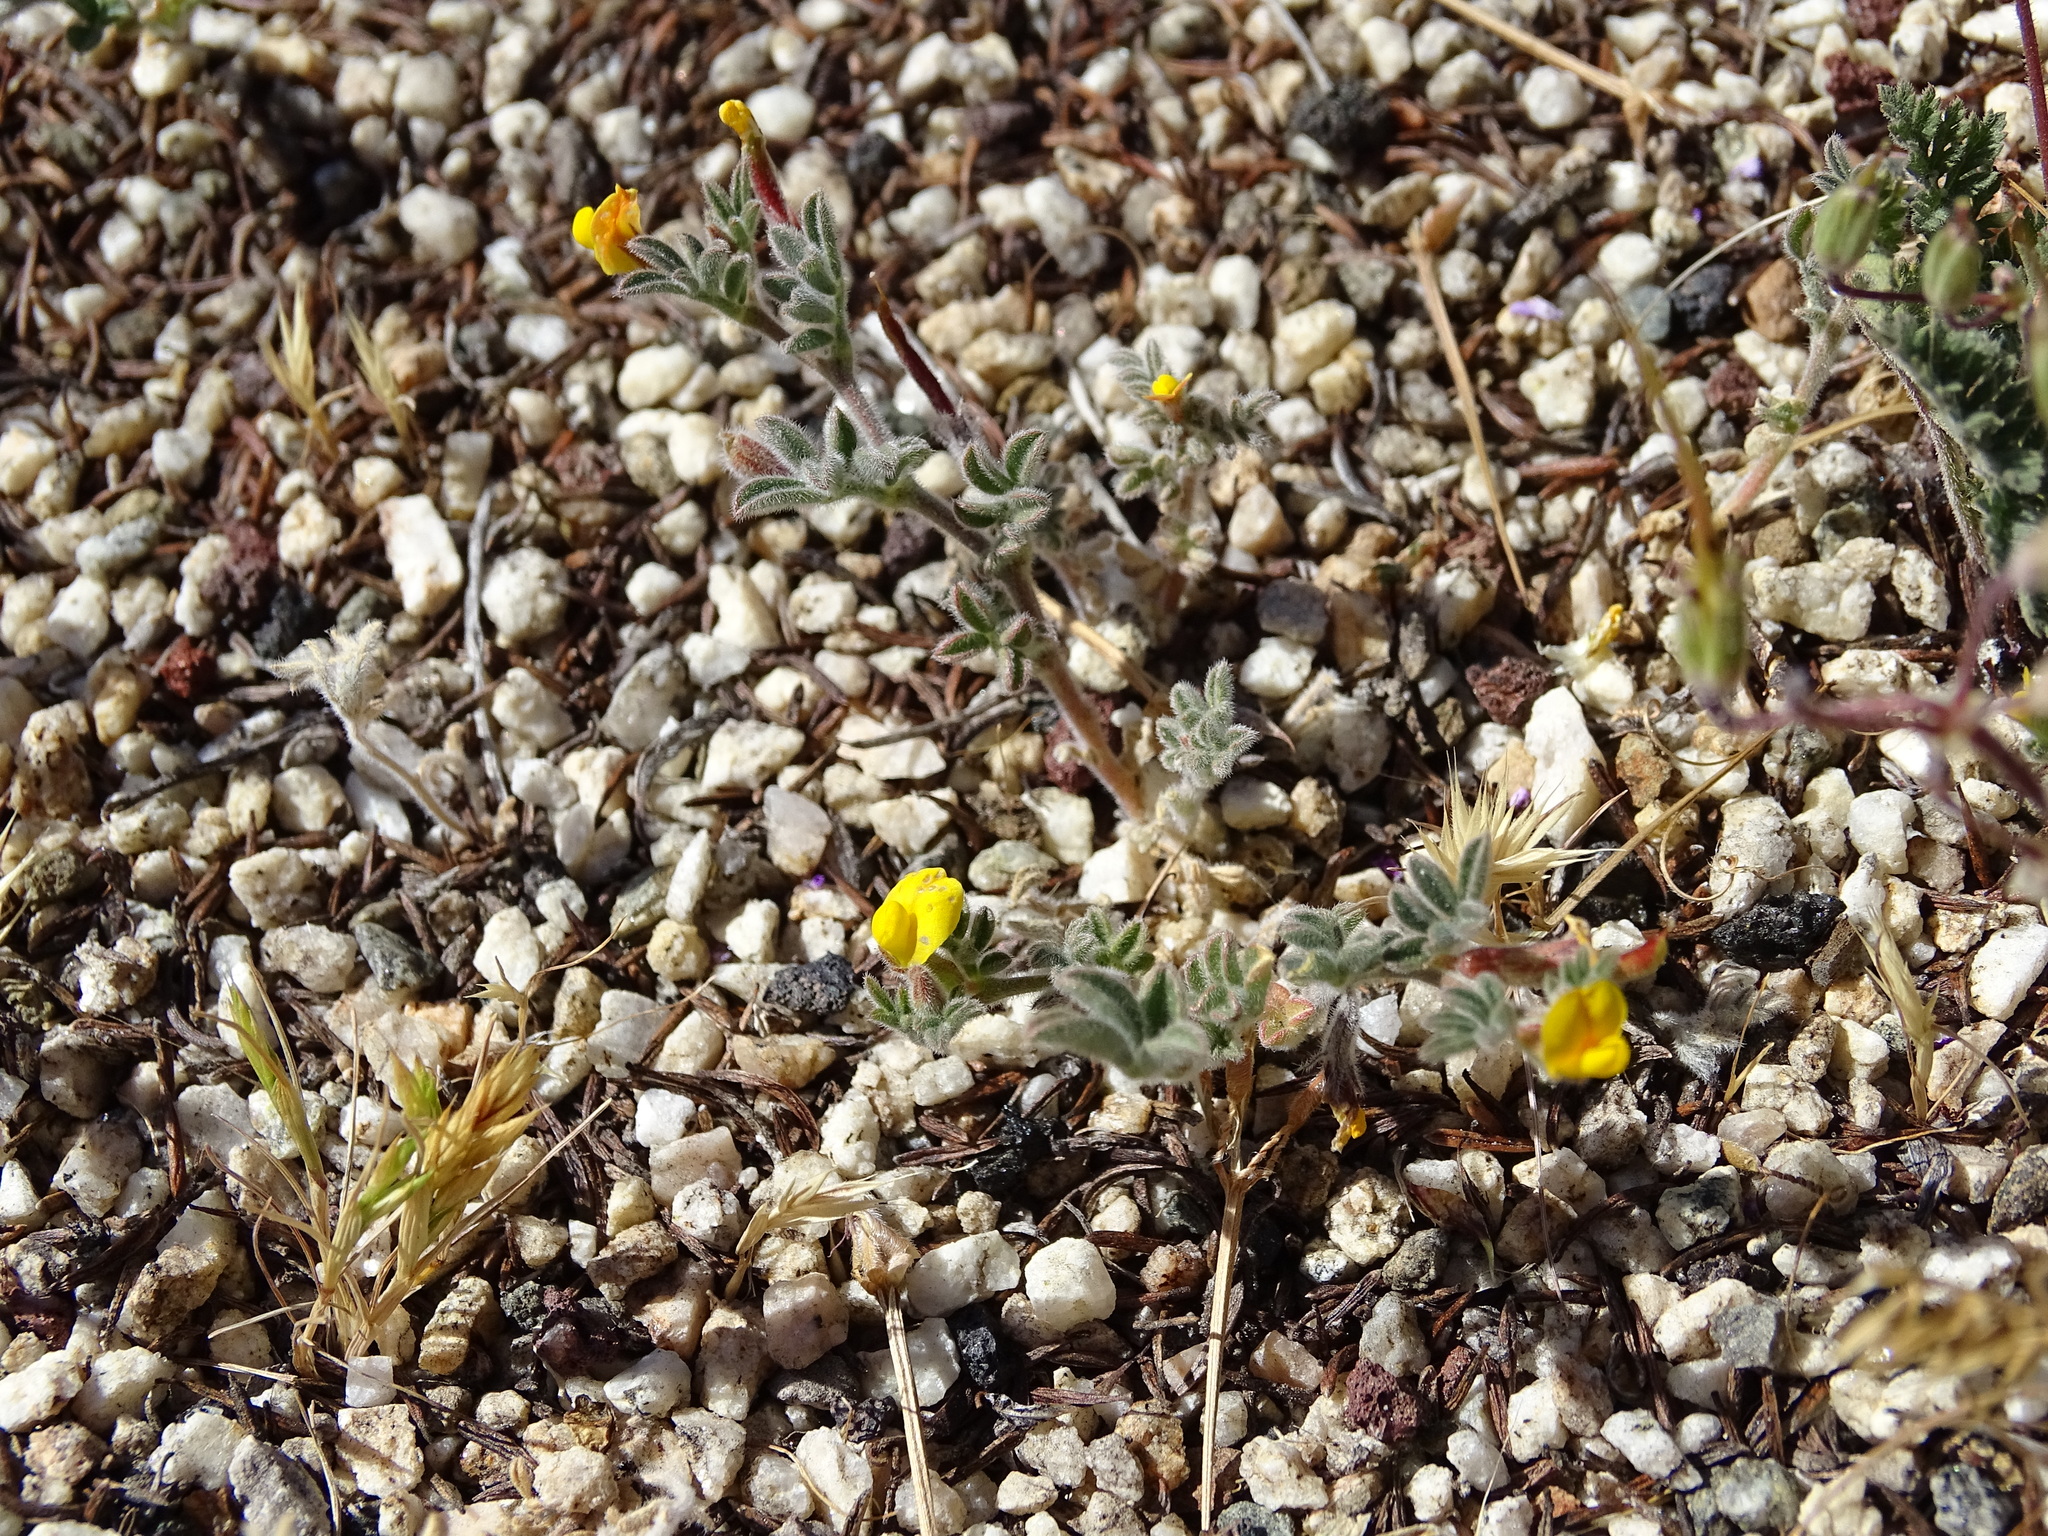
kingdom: Plantae
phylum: Tracheophyta
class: Magnoliopsida
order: Fabales
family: Fabaceae
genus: Acmispon
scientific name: Acmispon strigosus
